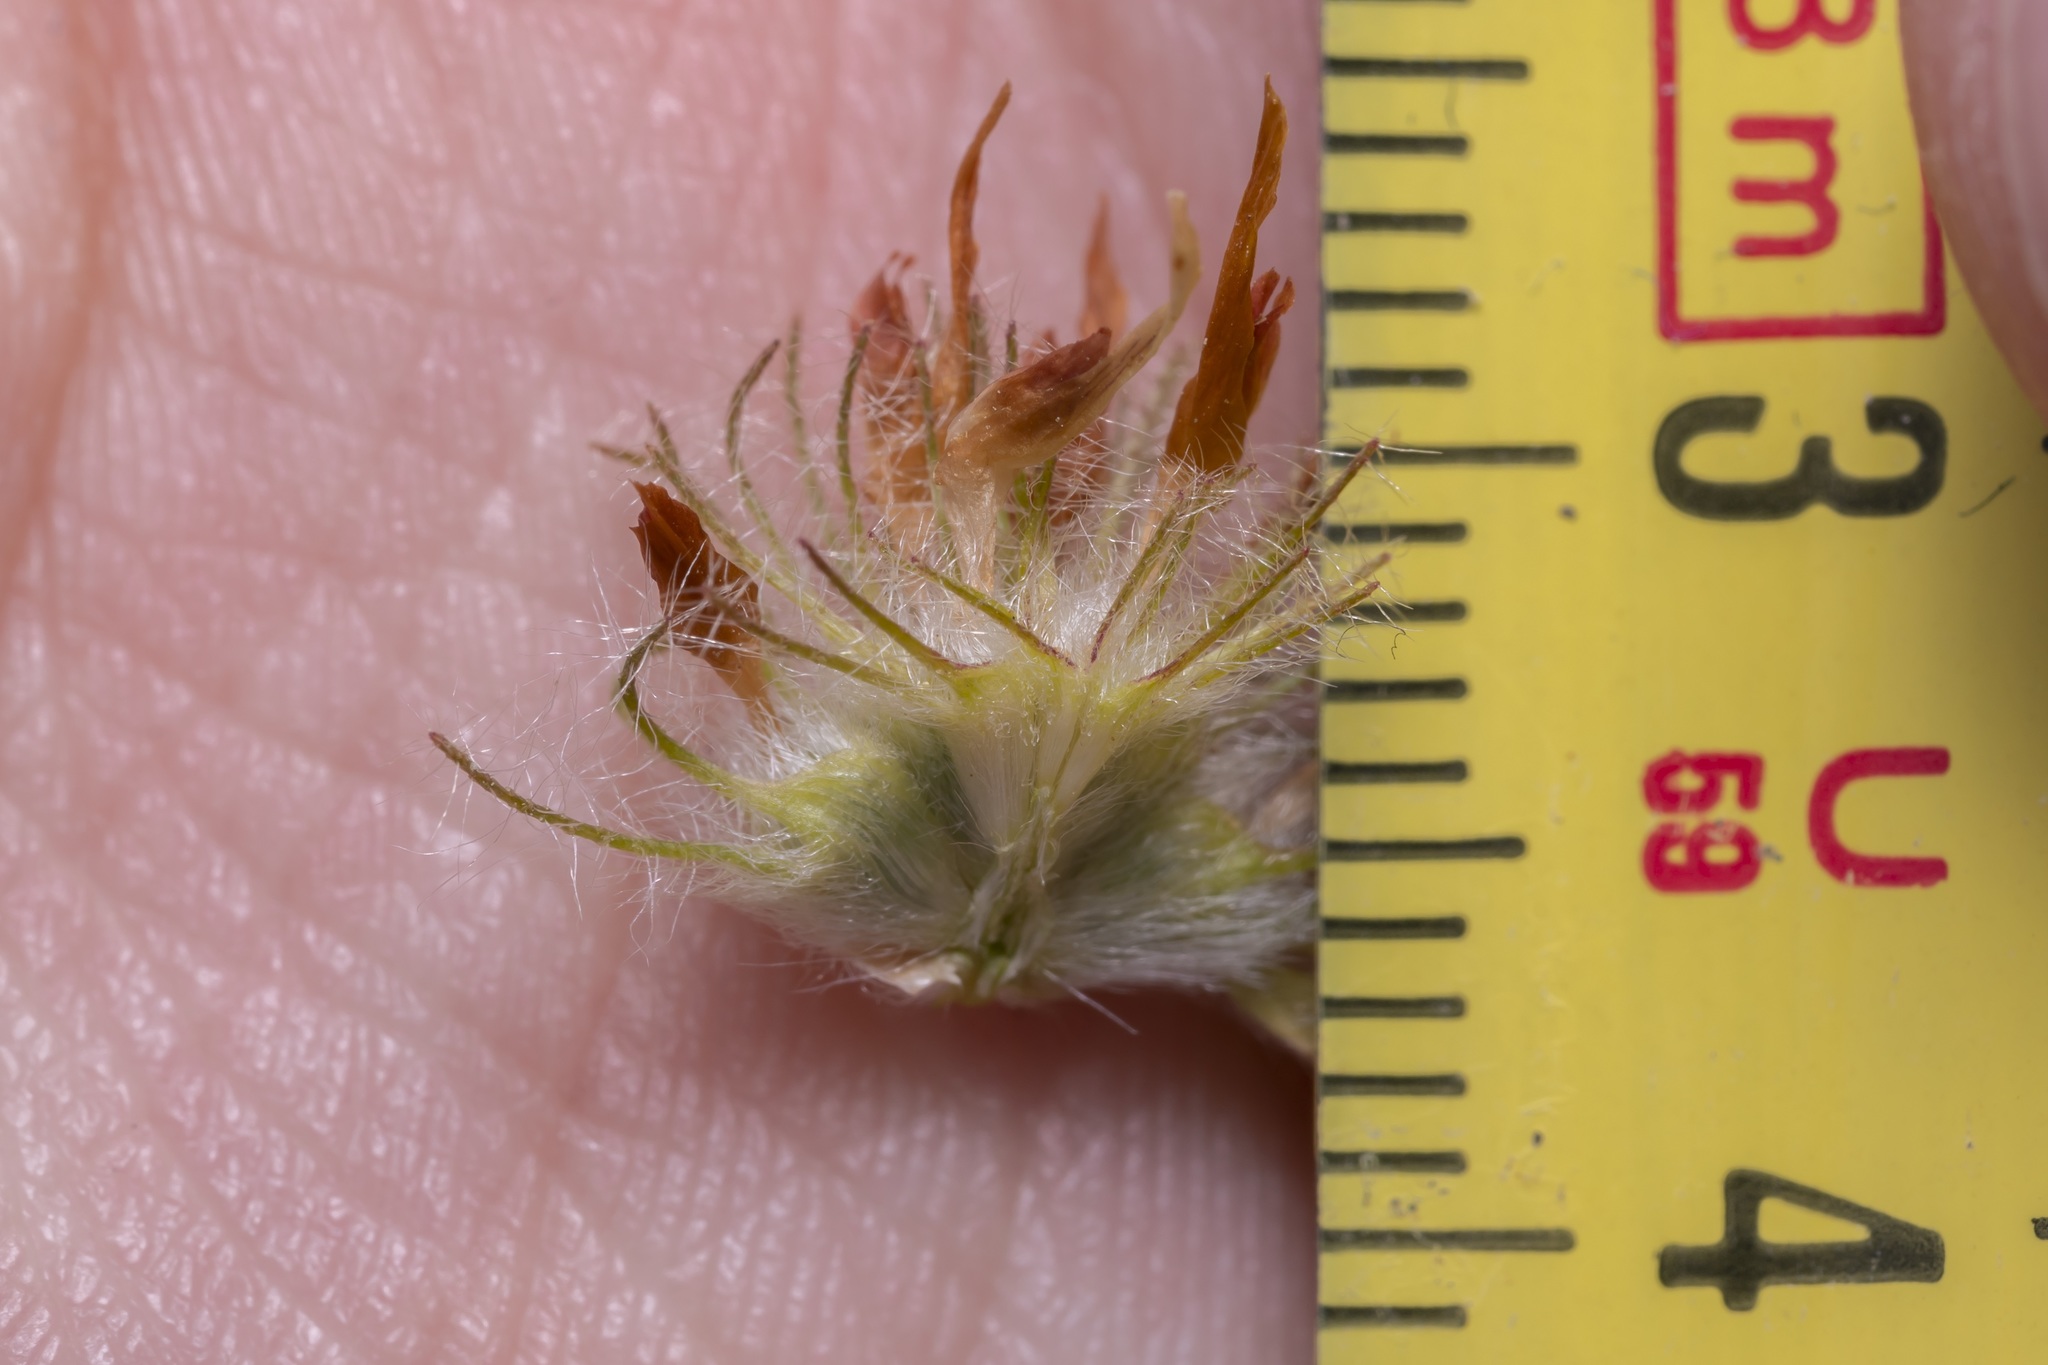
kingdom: Plantae
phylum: Tracheophyta
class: Magnoliopsida
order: Fabales
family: Fabaceae
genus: Trifolium
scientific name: Trifolium cherleri
